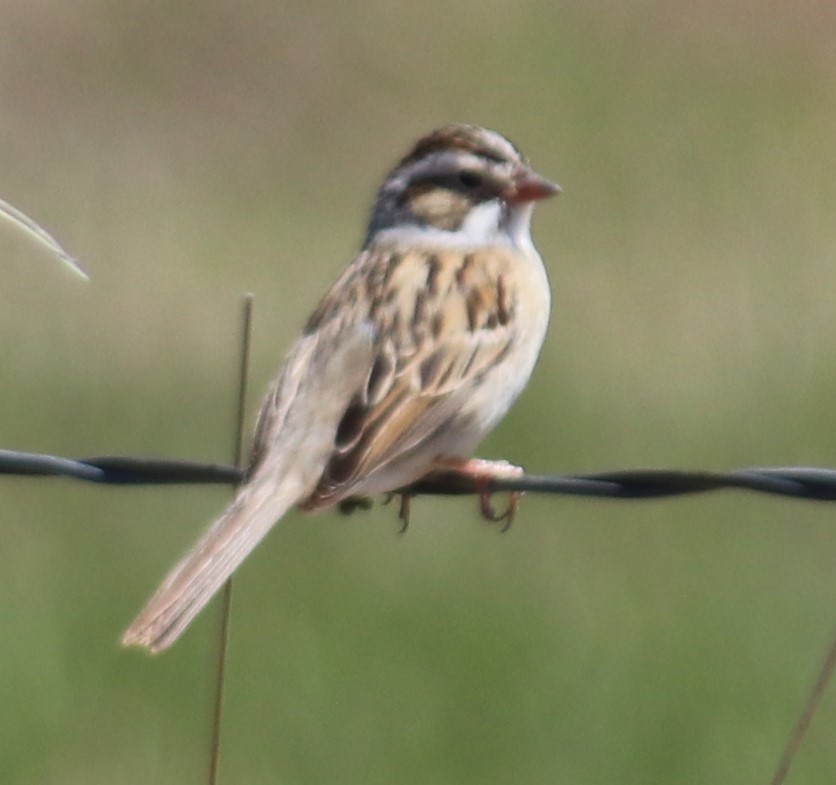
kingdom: Animalia
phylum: Chordata
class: Aves
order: Passeriformes
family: Passerellidae
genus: Spizella
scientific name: Spizella pallida
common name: Clay-colored sparrow
